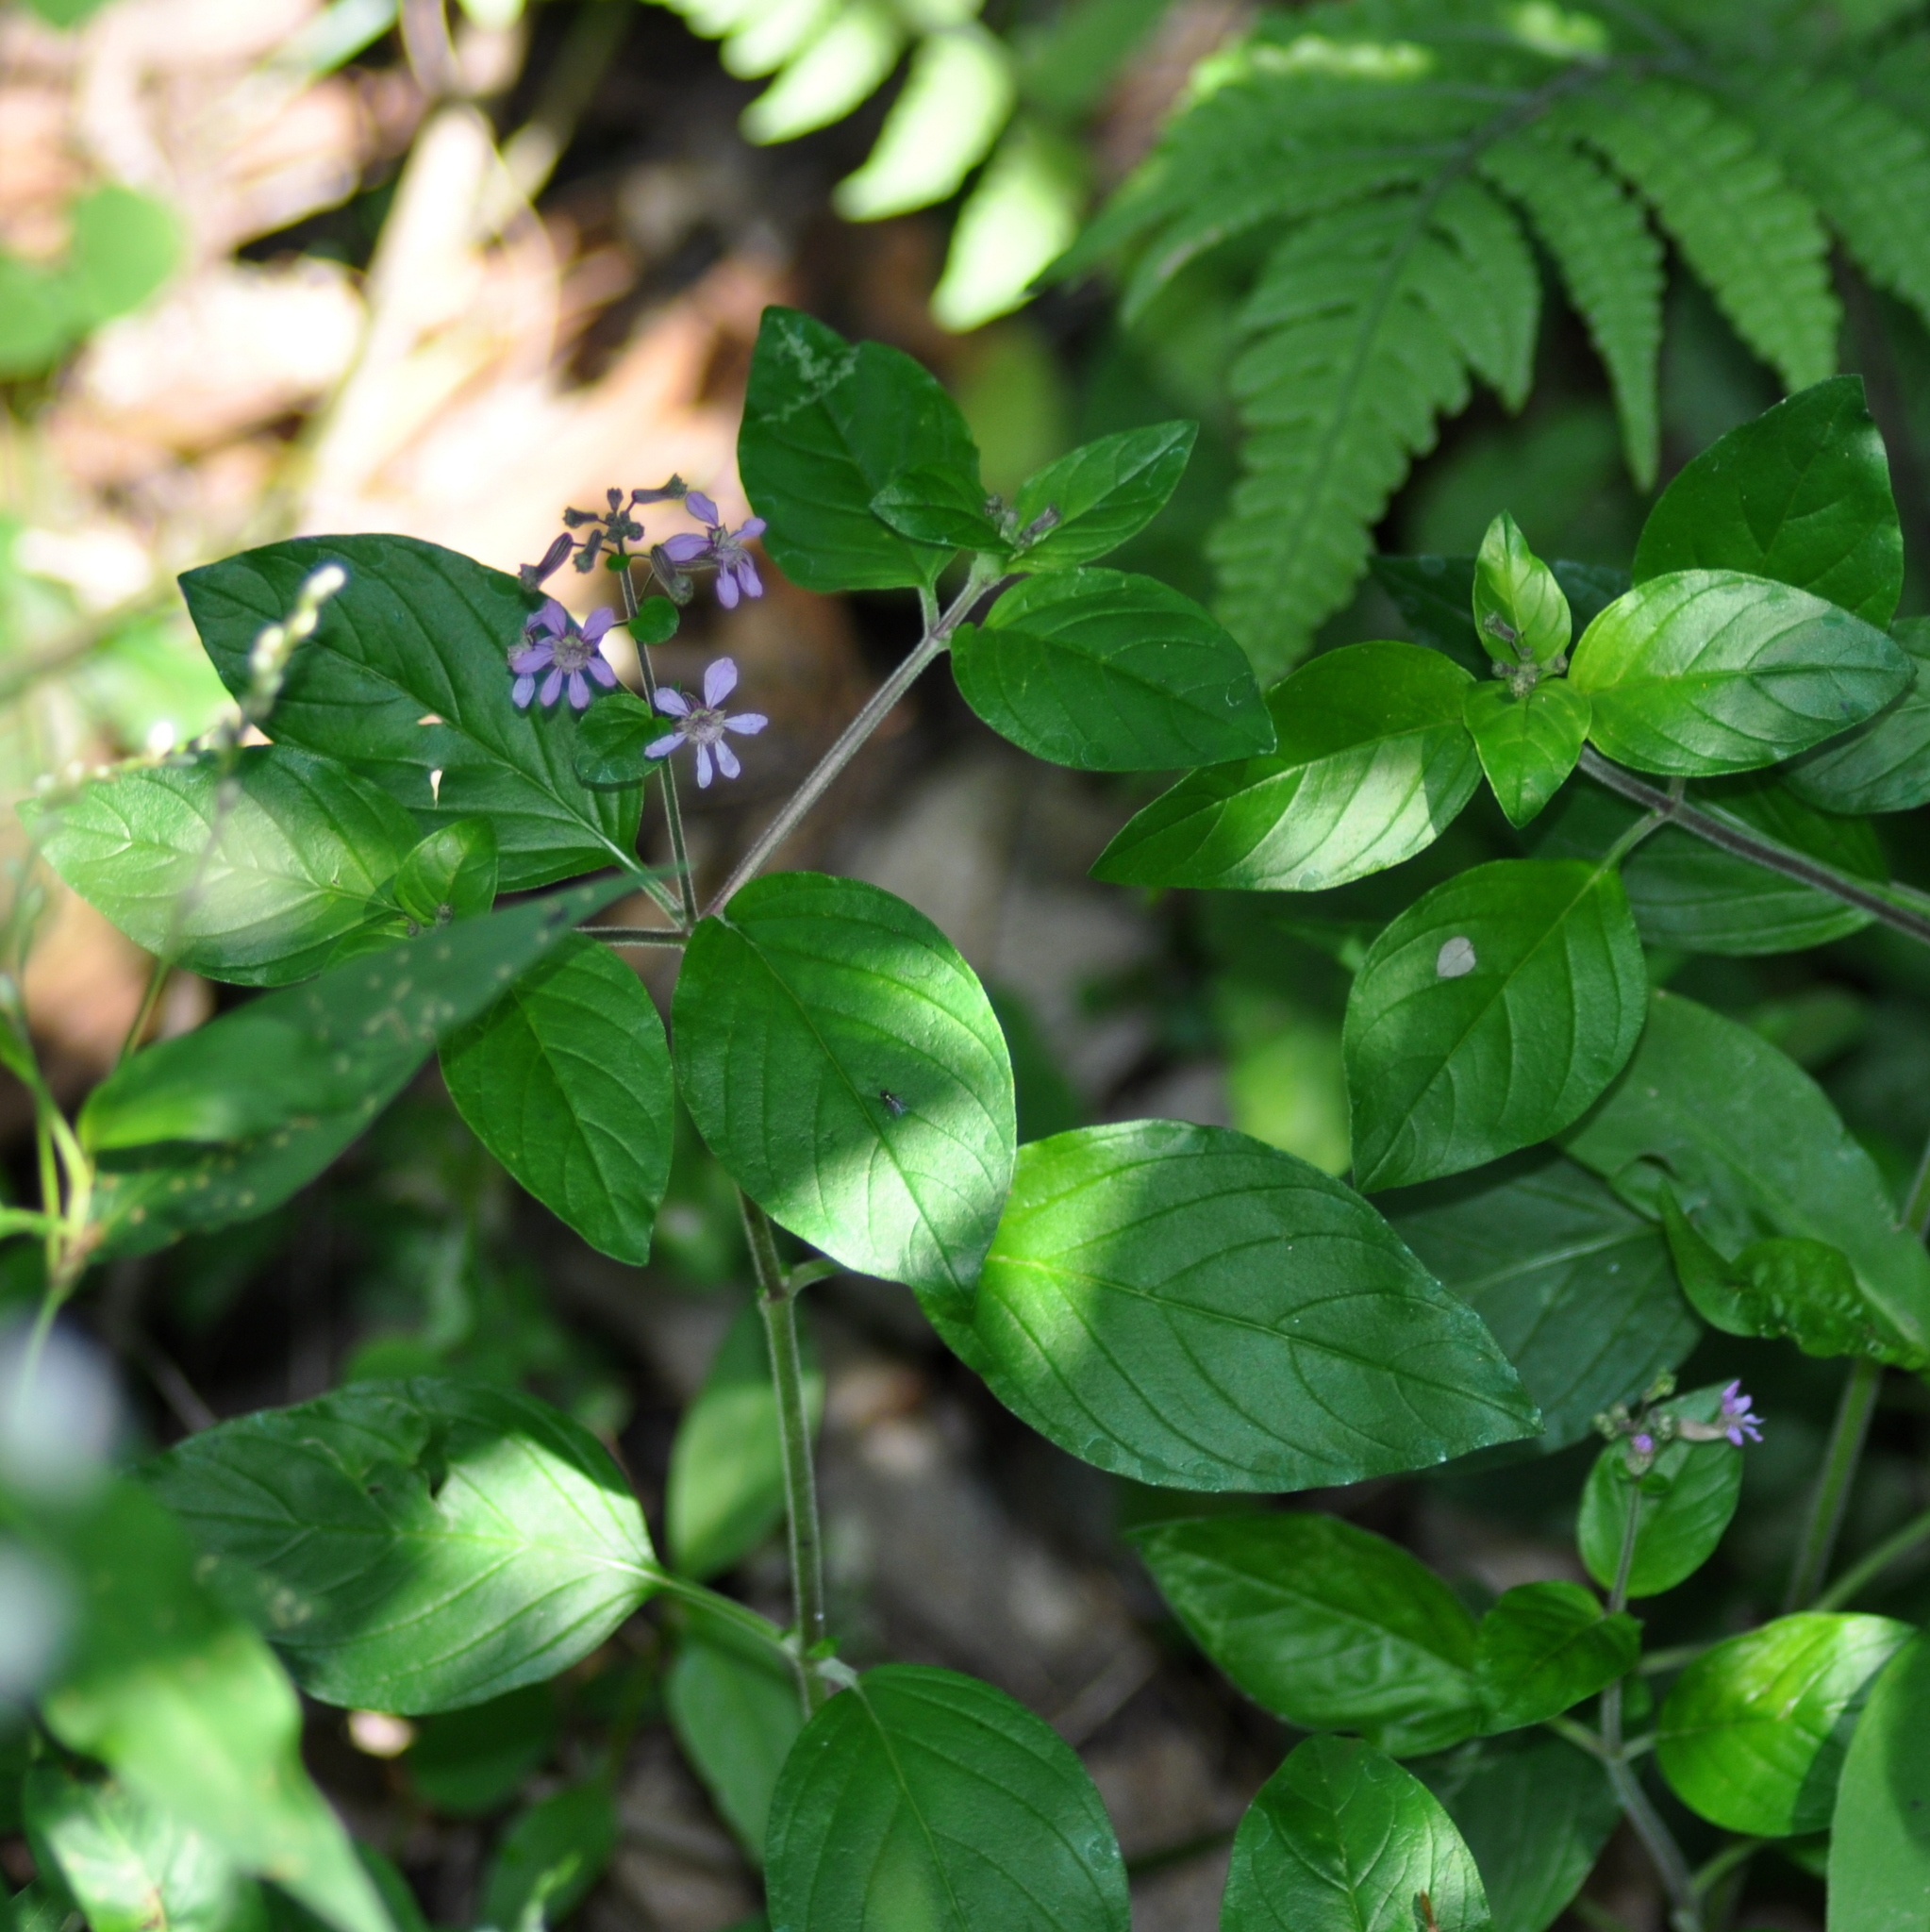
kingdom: Plantae
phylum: Tracheophyta
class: Magnoliopsida
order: Myrtales
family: Lythraceae
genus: Cuphea
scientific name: Cuphea racemosa
